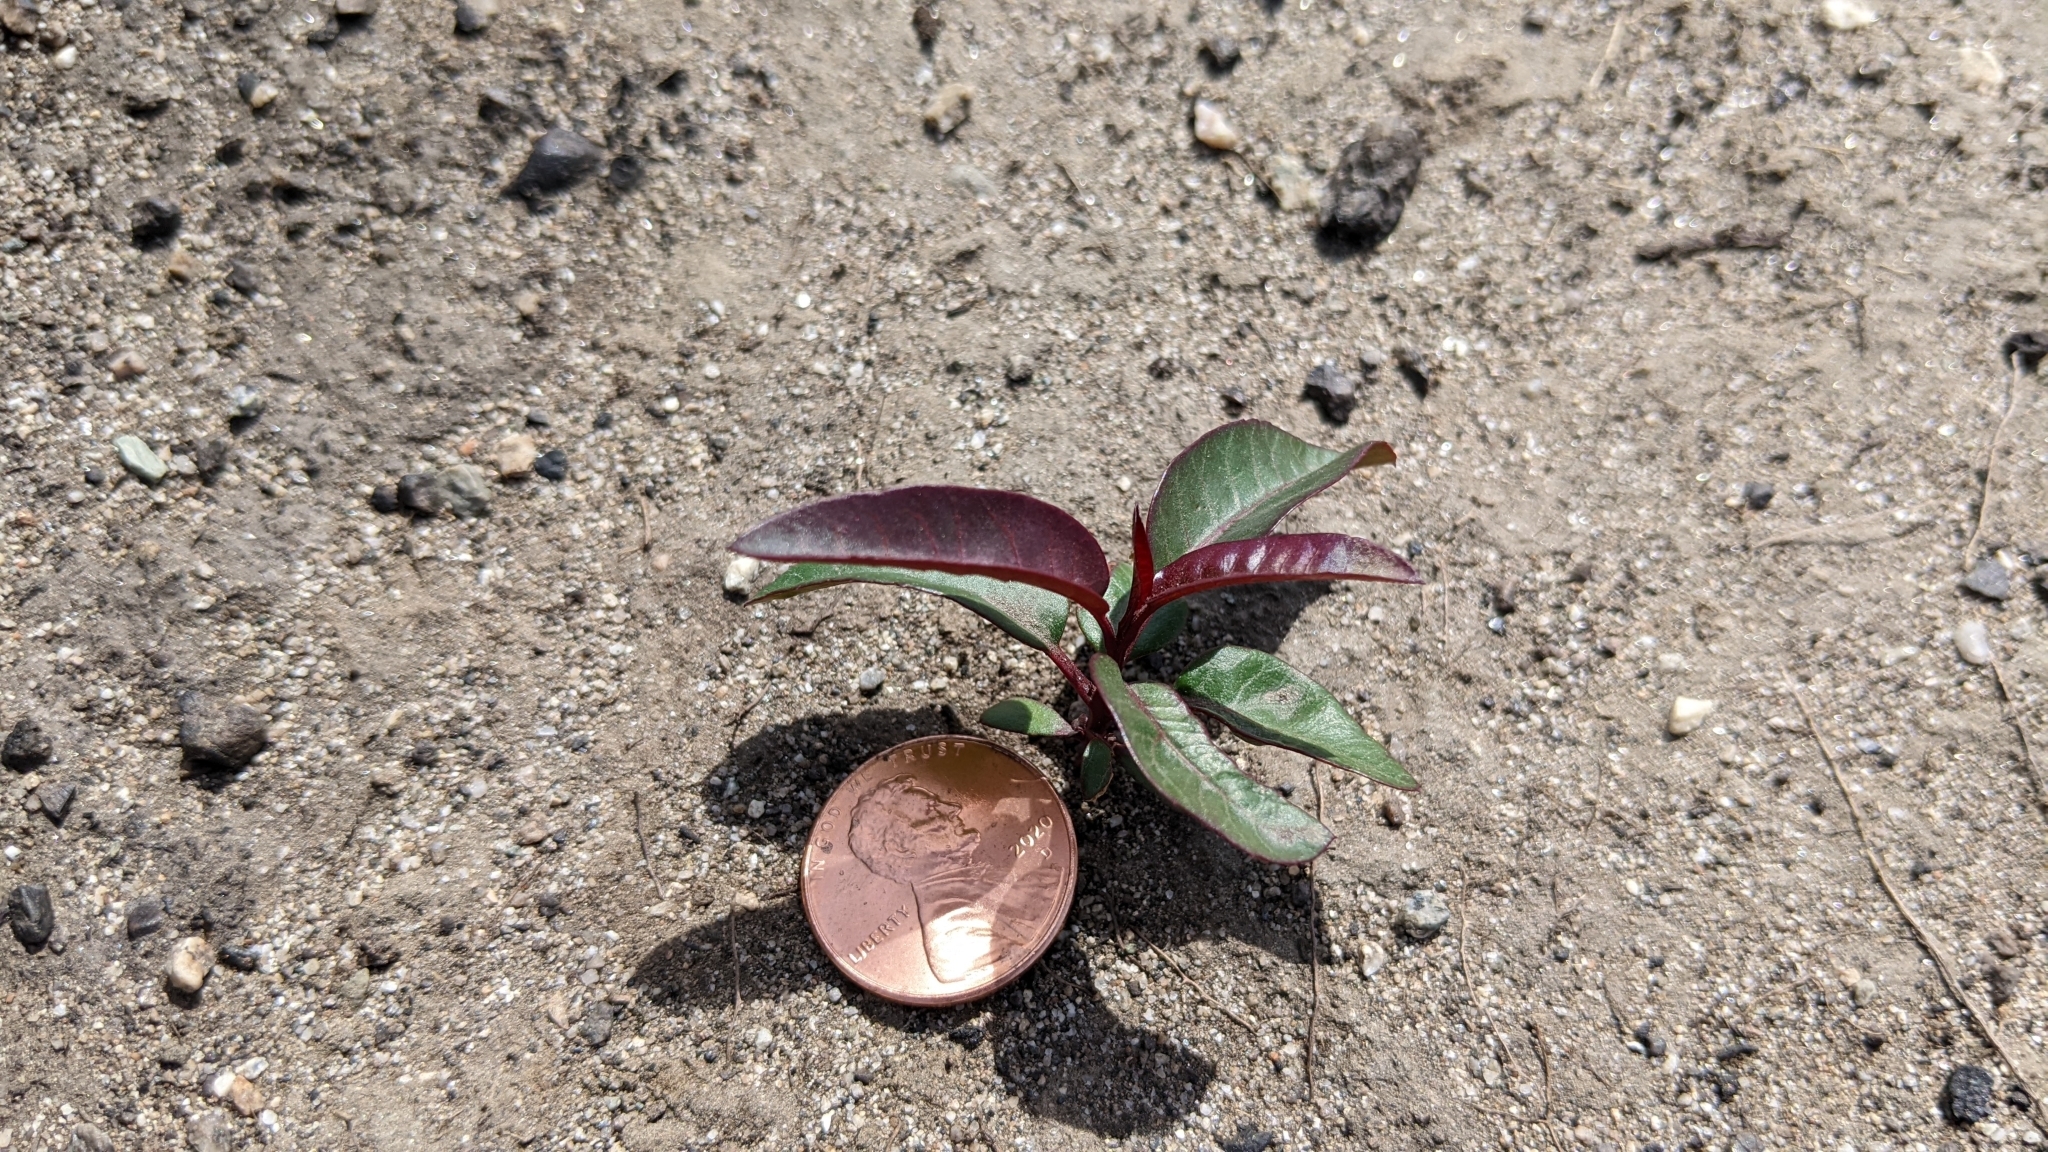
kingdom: Plantae
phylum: Tracheophyta
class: Magnoliopsida
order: Sapindales
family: Anacardiaceae
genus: Malosma
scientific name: Malosma laurina
